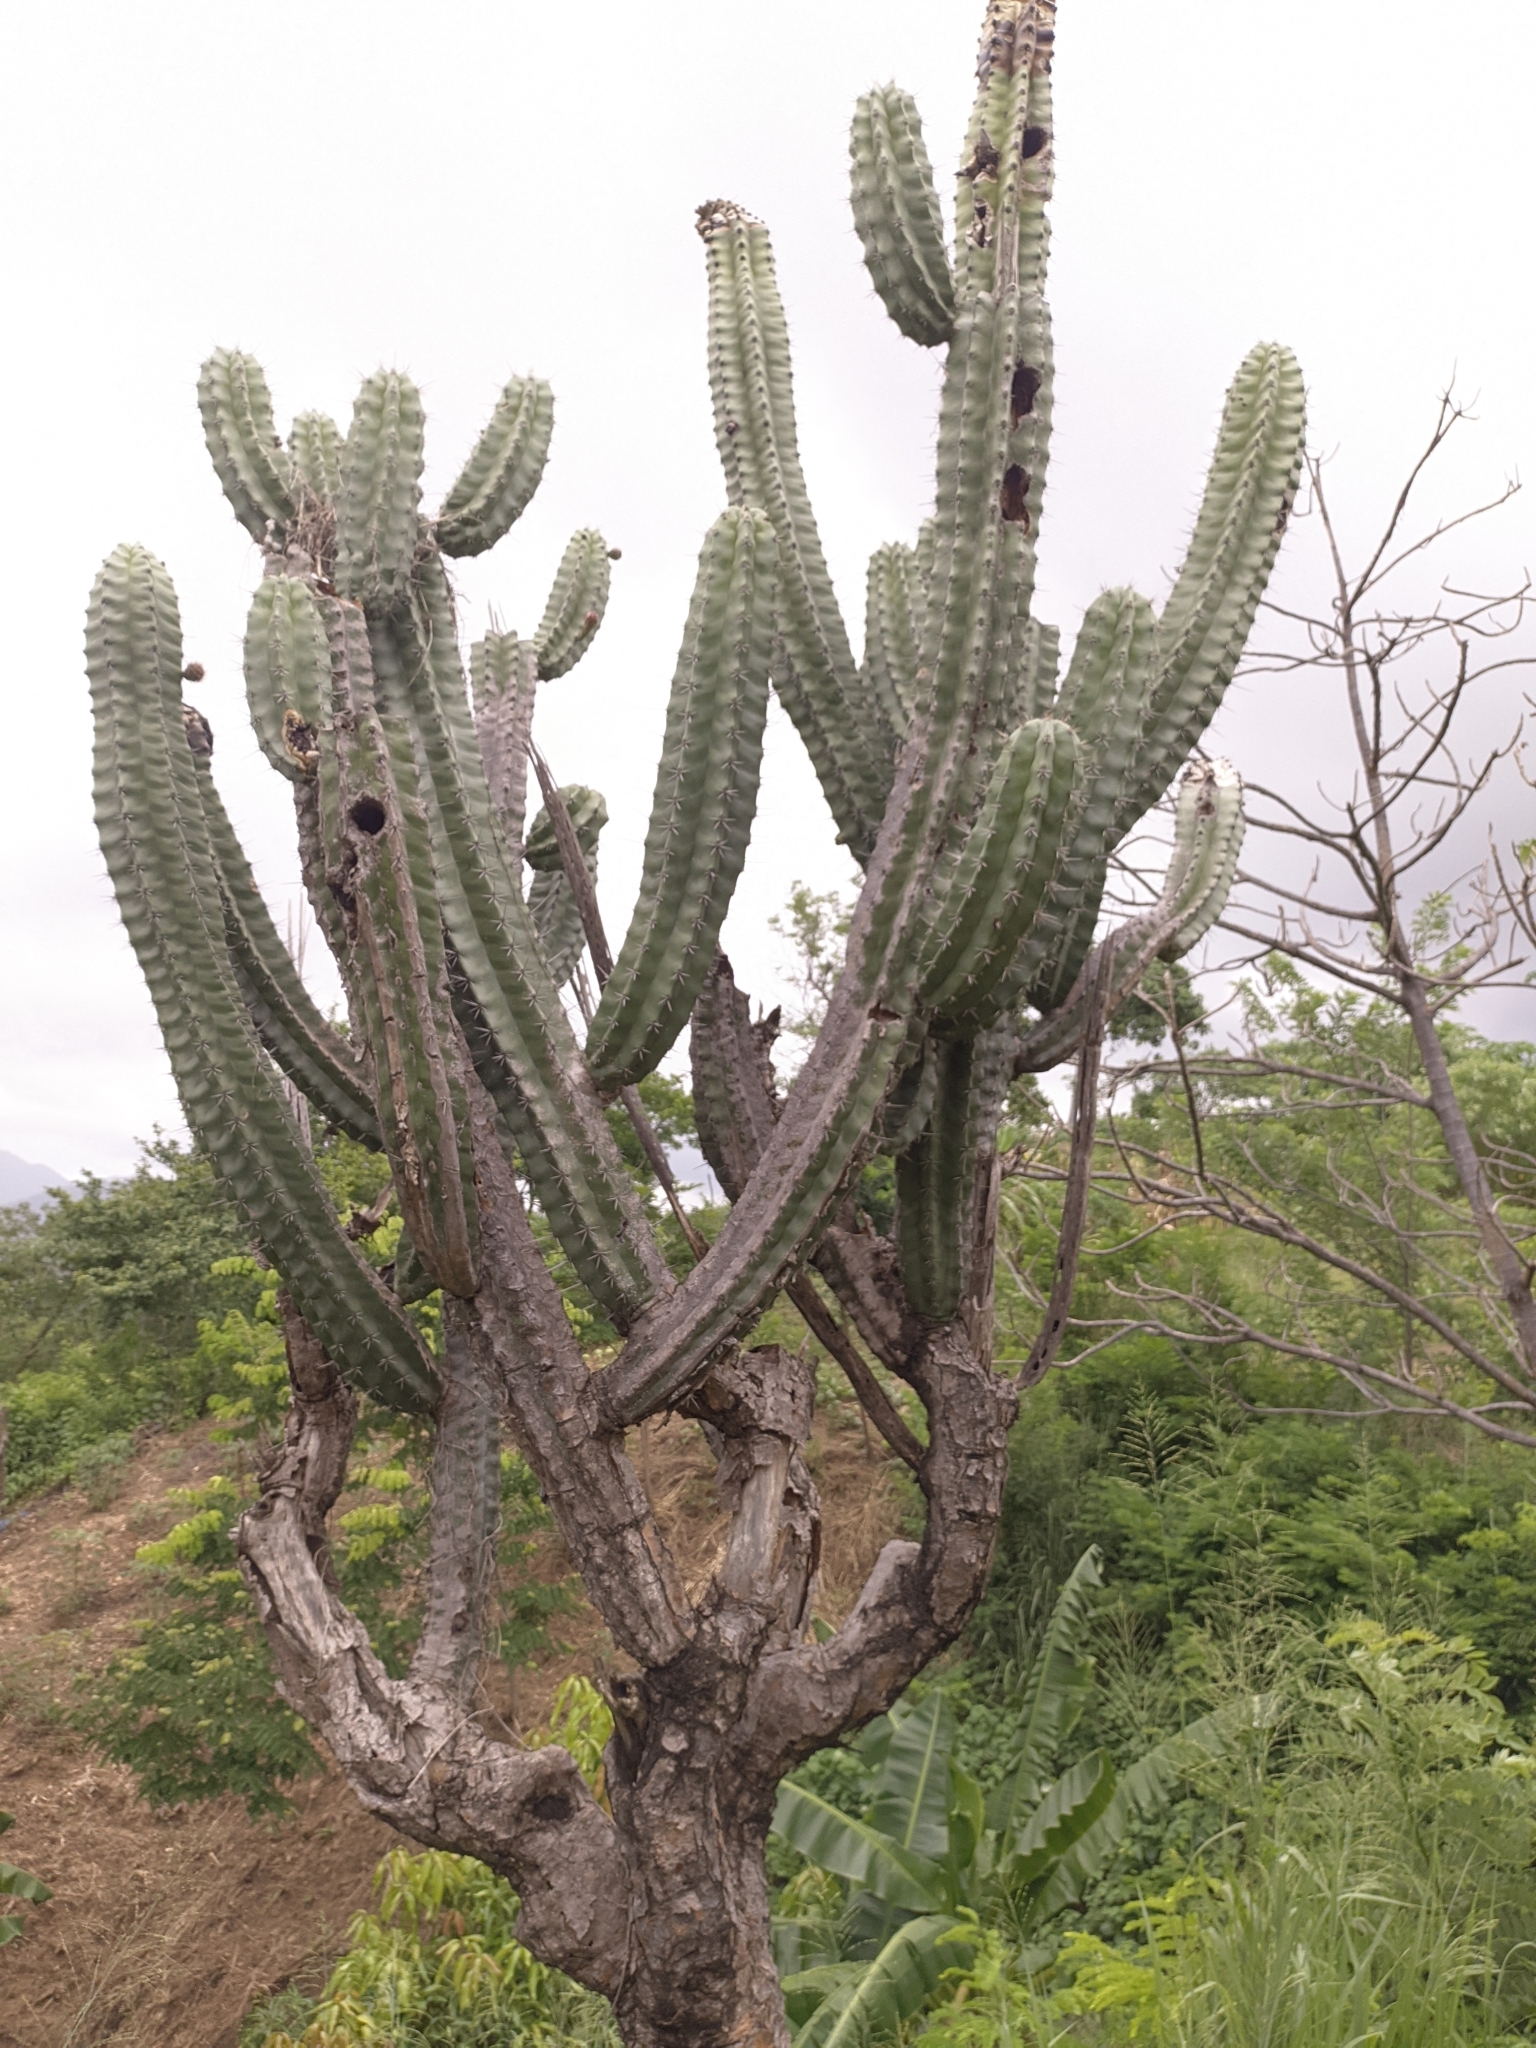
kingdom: Plantae
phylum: Tracheophyta
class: Magnoliopsida
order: Caryophyllales
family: Cactaceae
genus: Stenocereus
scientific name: Stenocereus griseus
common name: Tall candelabra cactus
